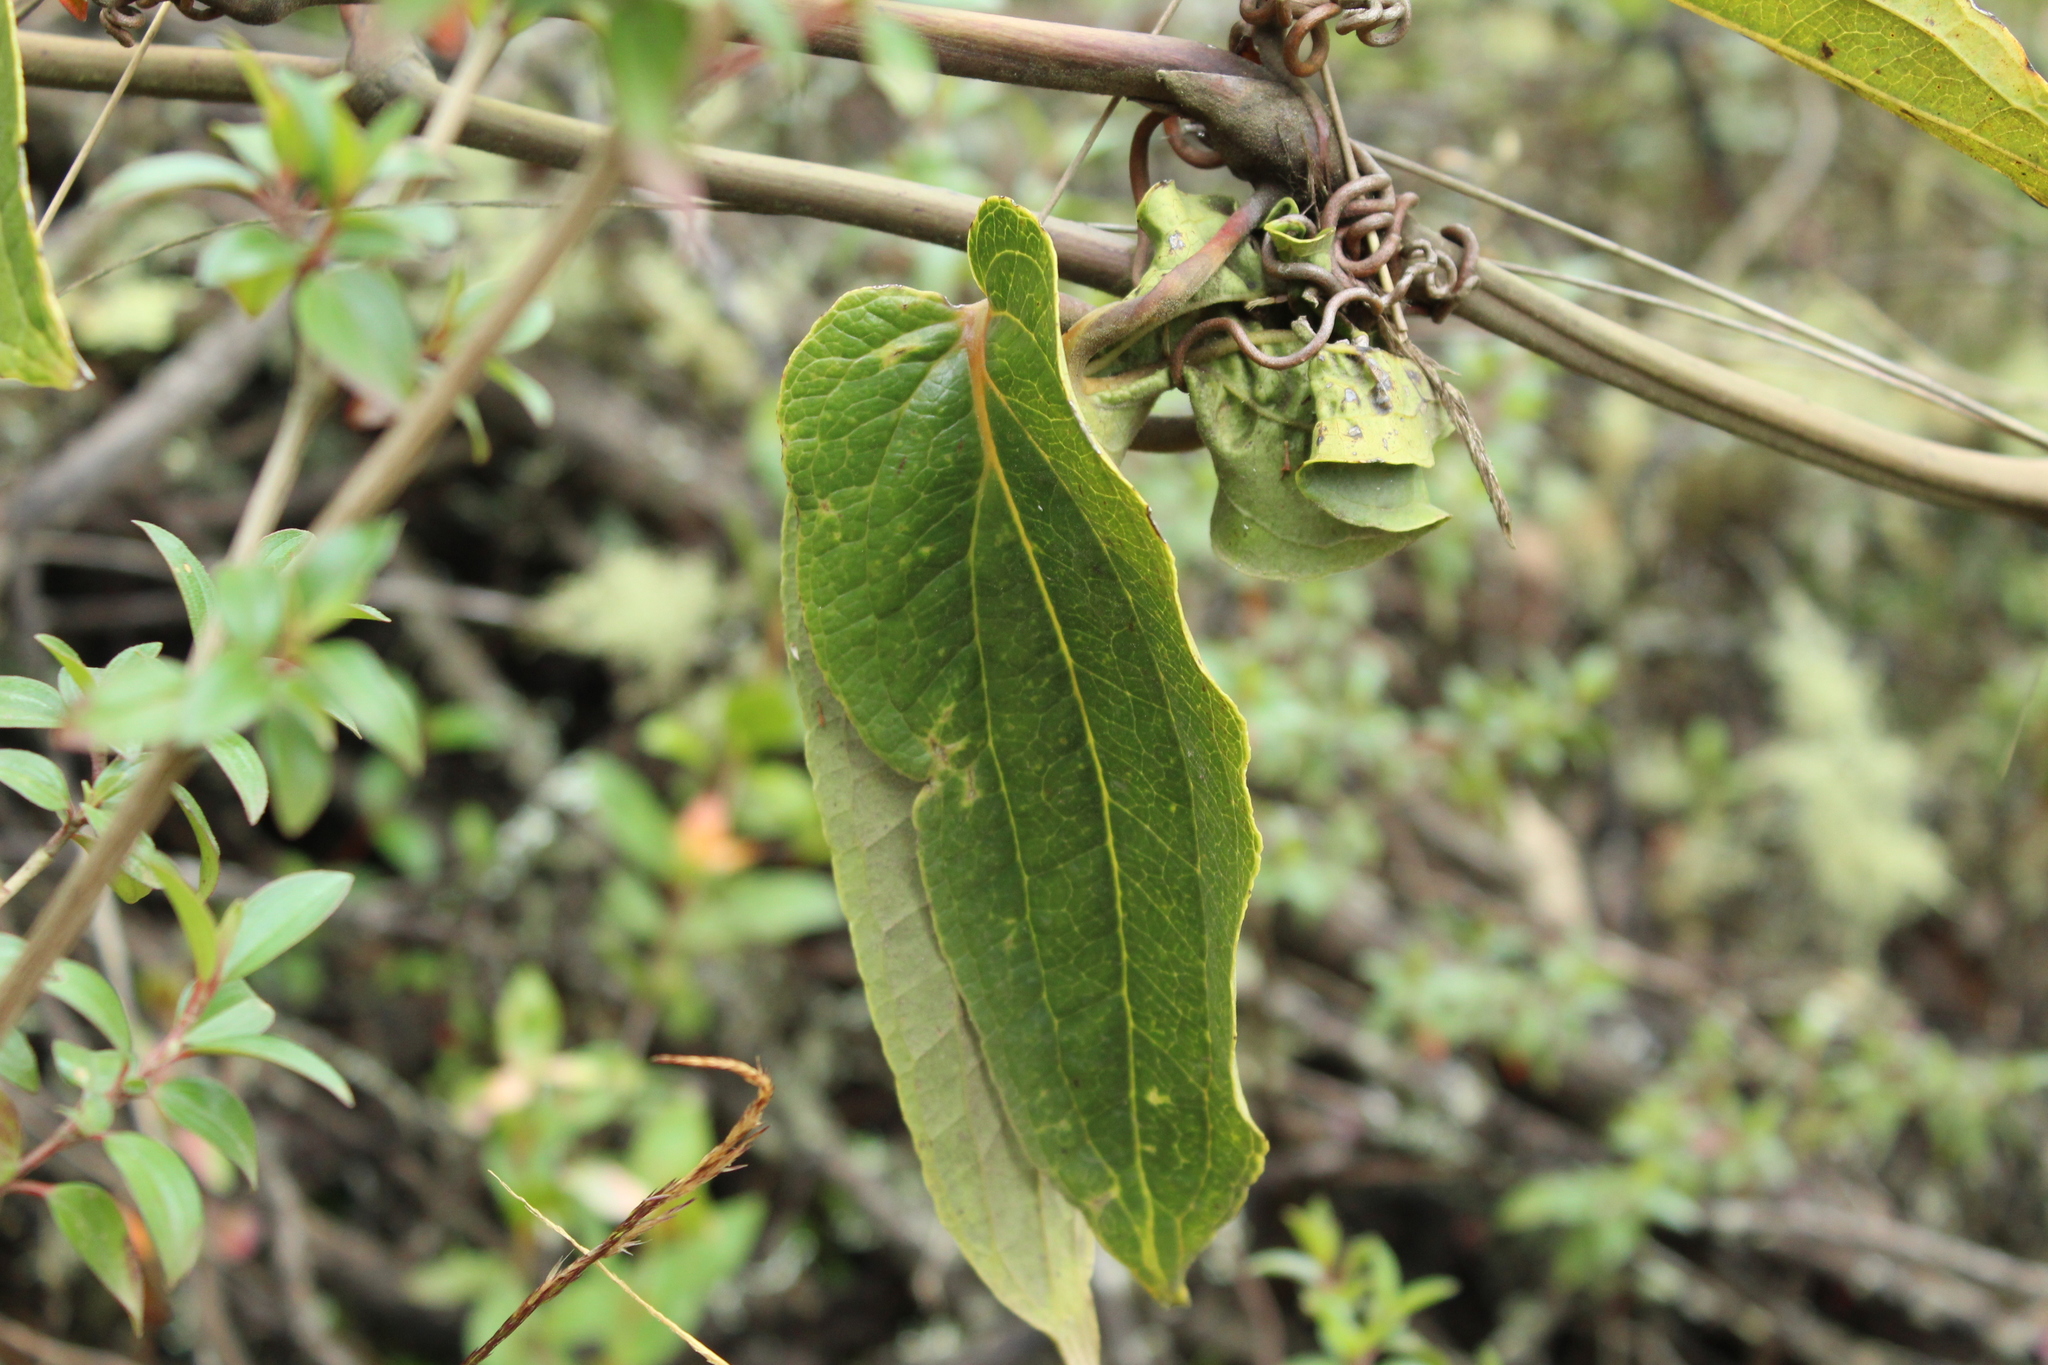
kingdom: Plantae
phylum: Tracheophyta
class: Liliopsida
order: Liliales
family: Smilacaceae
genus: Smilax
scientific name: Smilax tomentosa
